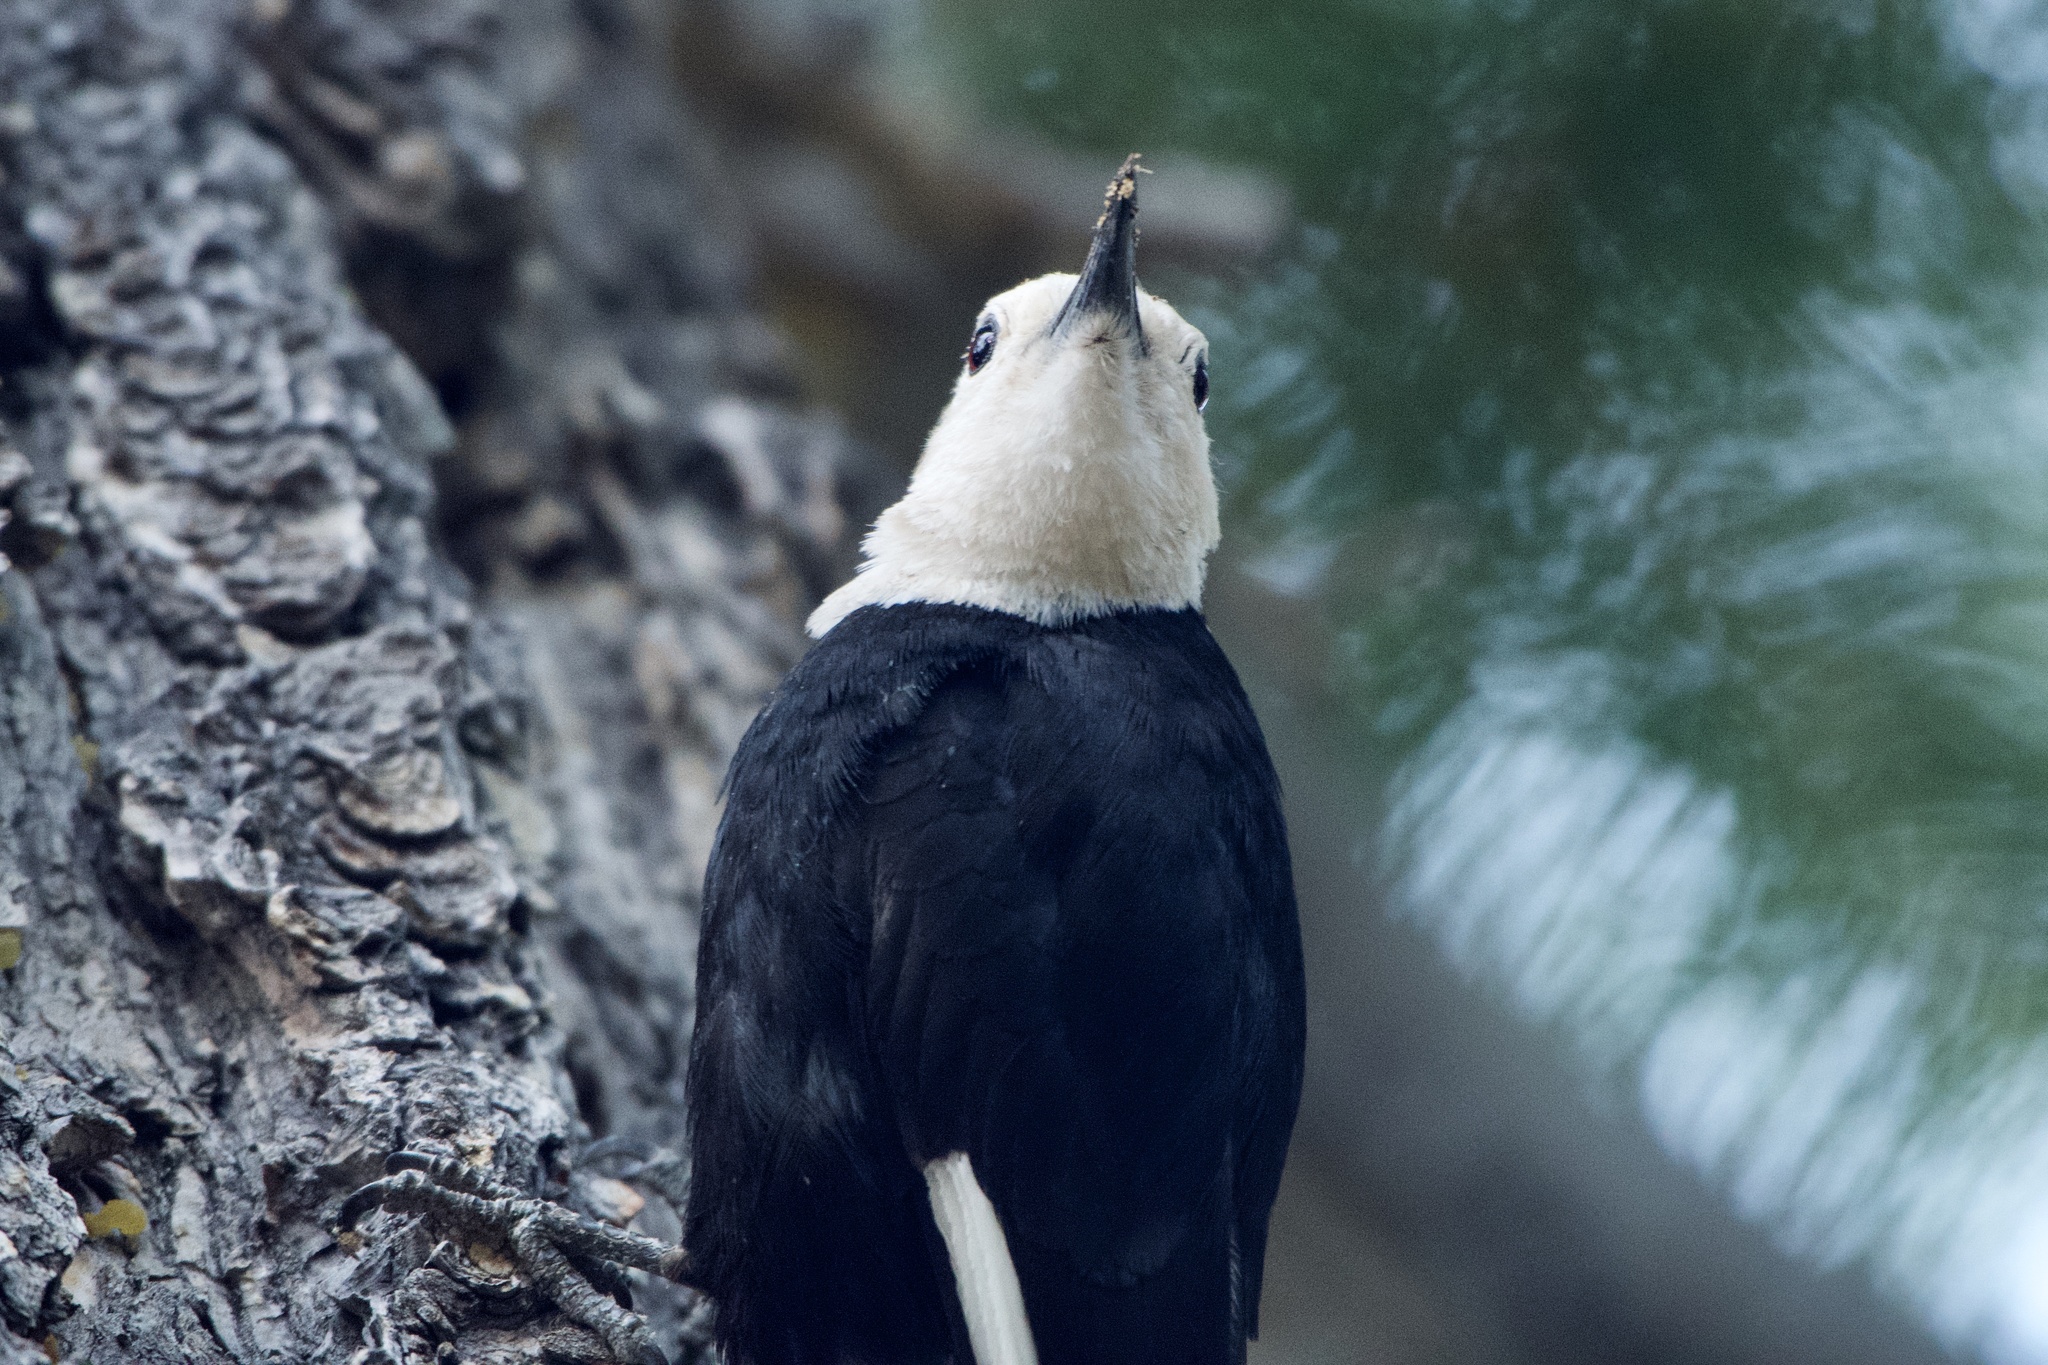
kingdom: Animalia
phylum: Chordata
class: Aves
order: Piciformes
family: Picidae
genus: Leuconotopicus
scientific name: Leuconotopicus albolarvatus
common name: White-headed woodpecker
